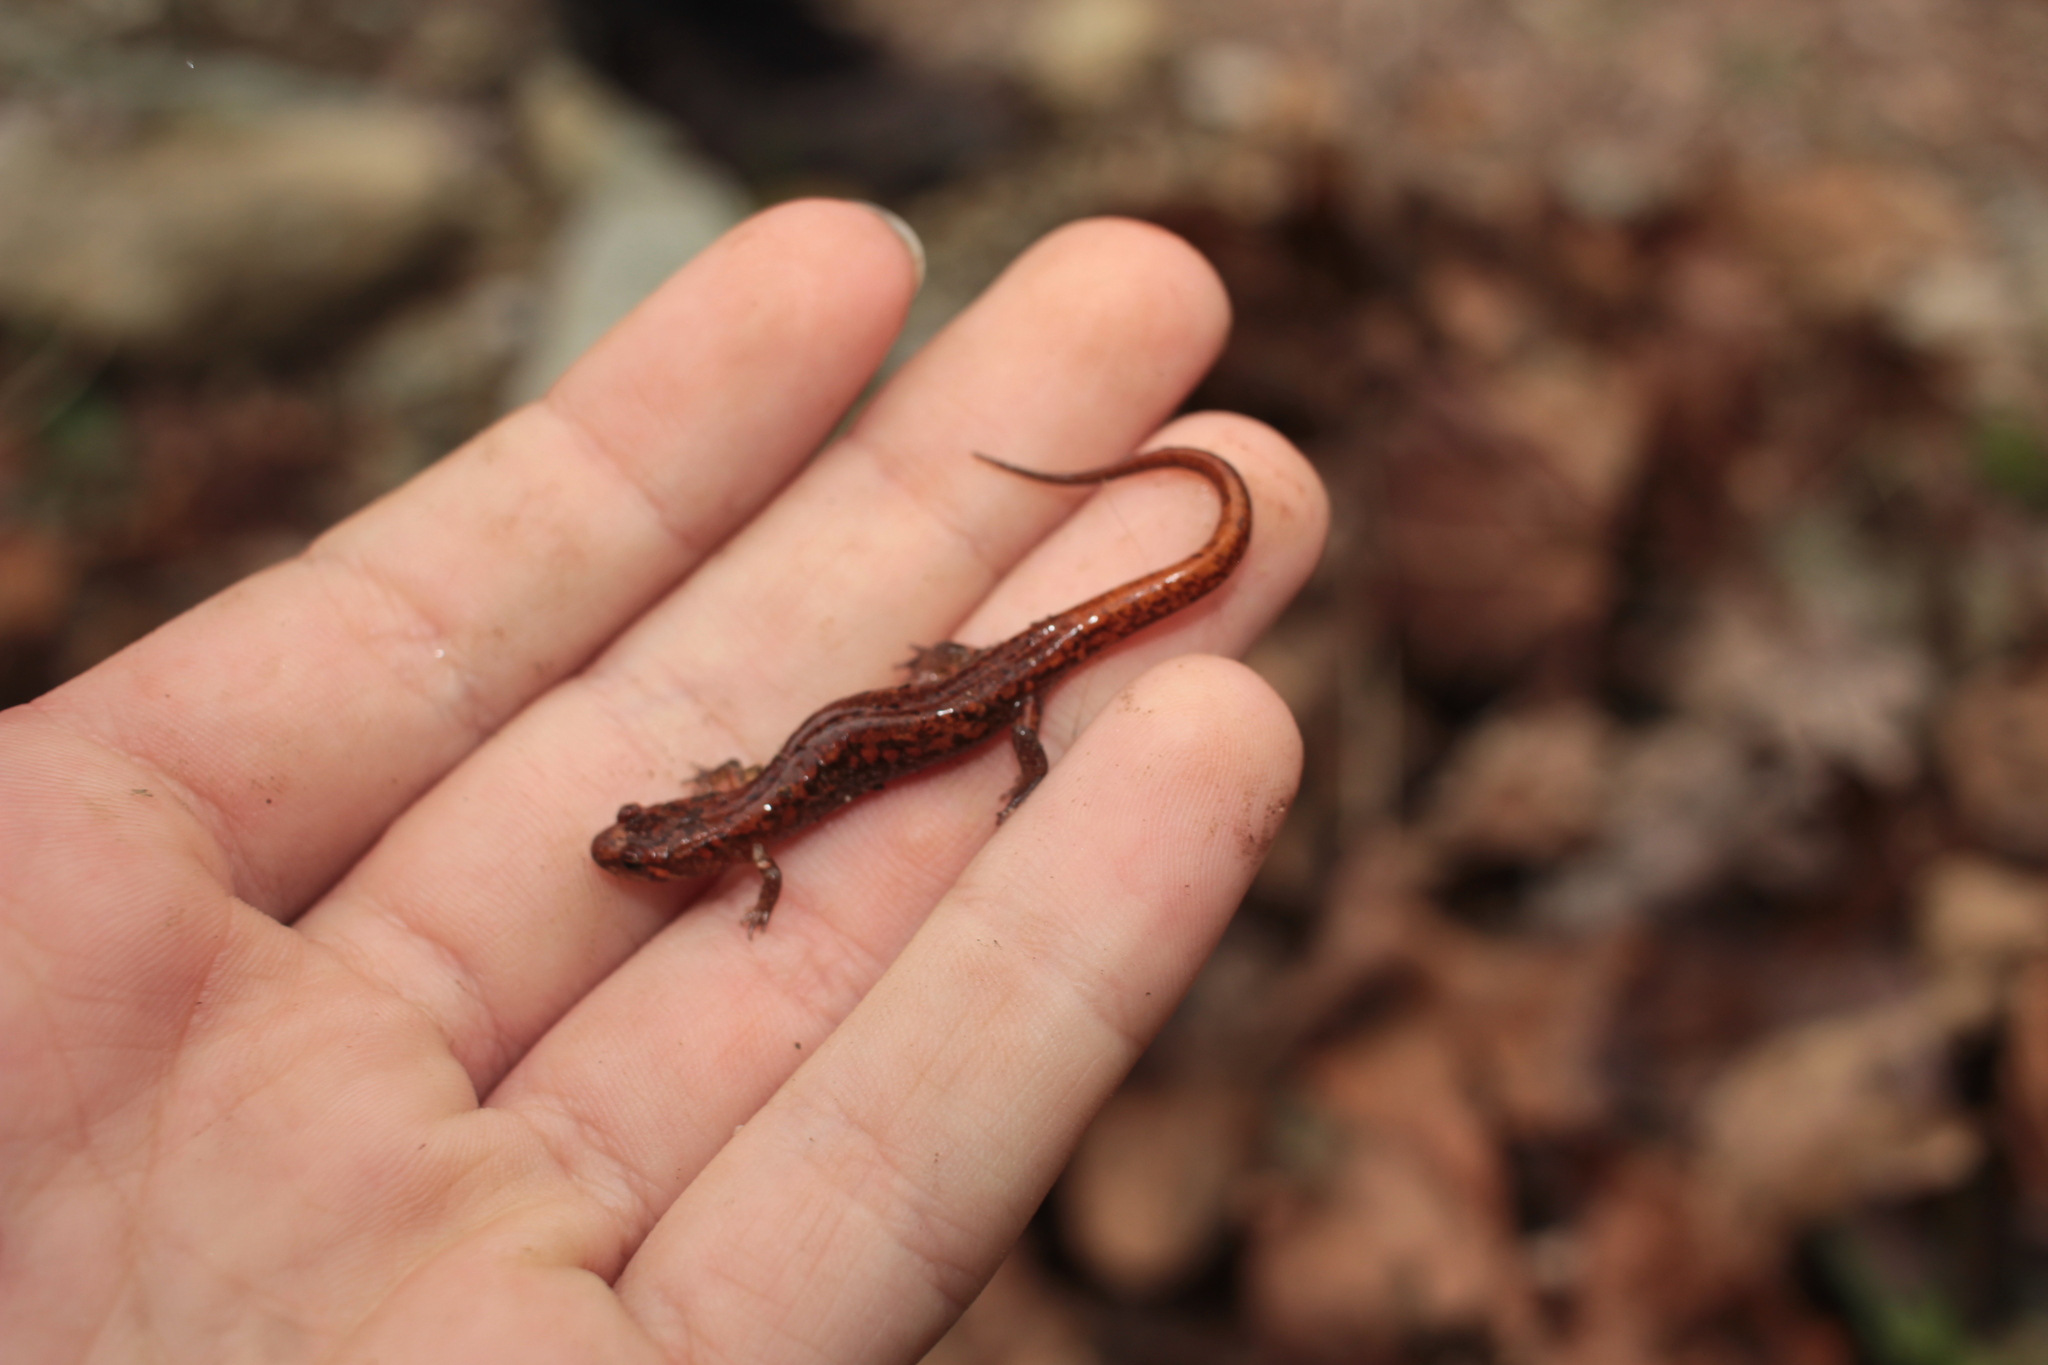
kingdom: Animalia
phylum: Chordata
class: Amphibia
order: Caudata
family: Plethodontidae
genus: Desmognathus
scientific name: Desmognathus orestes
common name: Blue ridge dusky salamander
